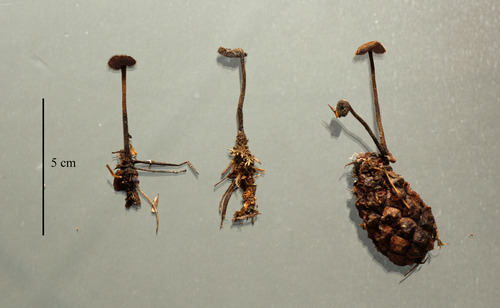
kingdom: Fungi
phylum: Basidiomycota
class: Agaricomycetes
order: Russulales
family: Auriscalpiaceae
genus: Auriscalpium
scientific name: Auriscalpium vulgare
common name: Earpick fungus
